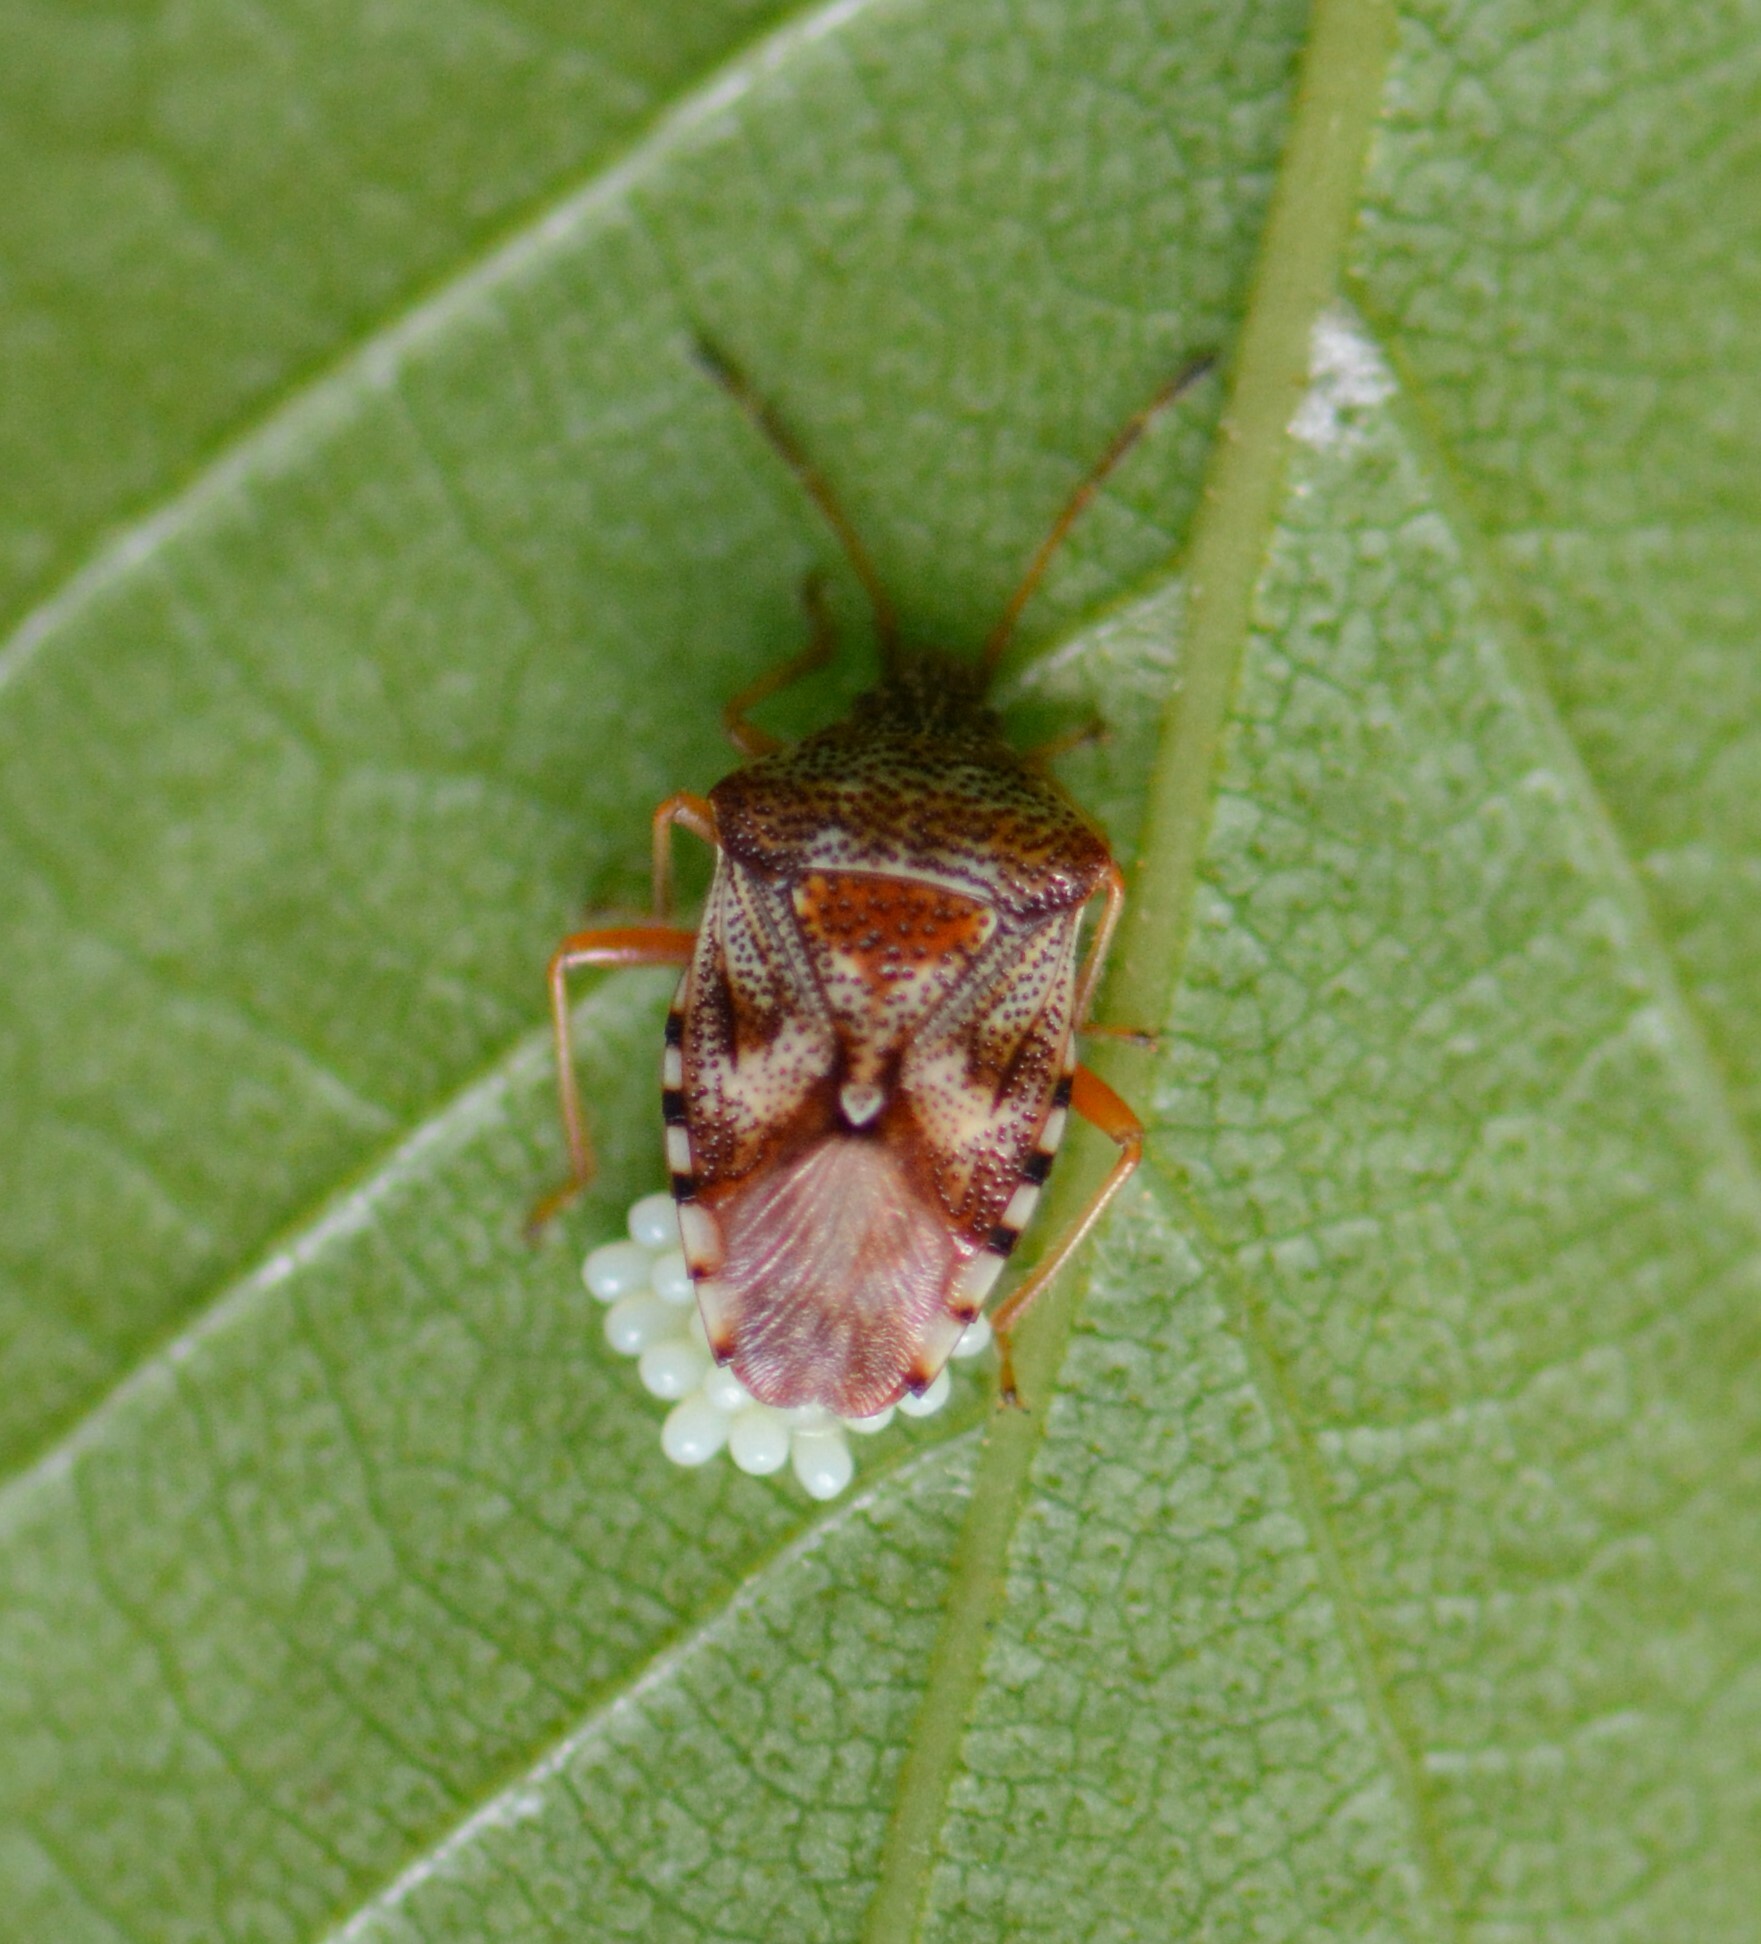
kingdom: Animalia
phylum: Arthropoda
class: Insecta
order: Hemiptera
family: Acanthosomatidae
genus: Elasmucha
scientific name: Elasmucha lateralis
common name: Shield bug
